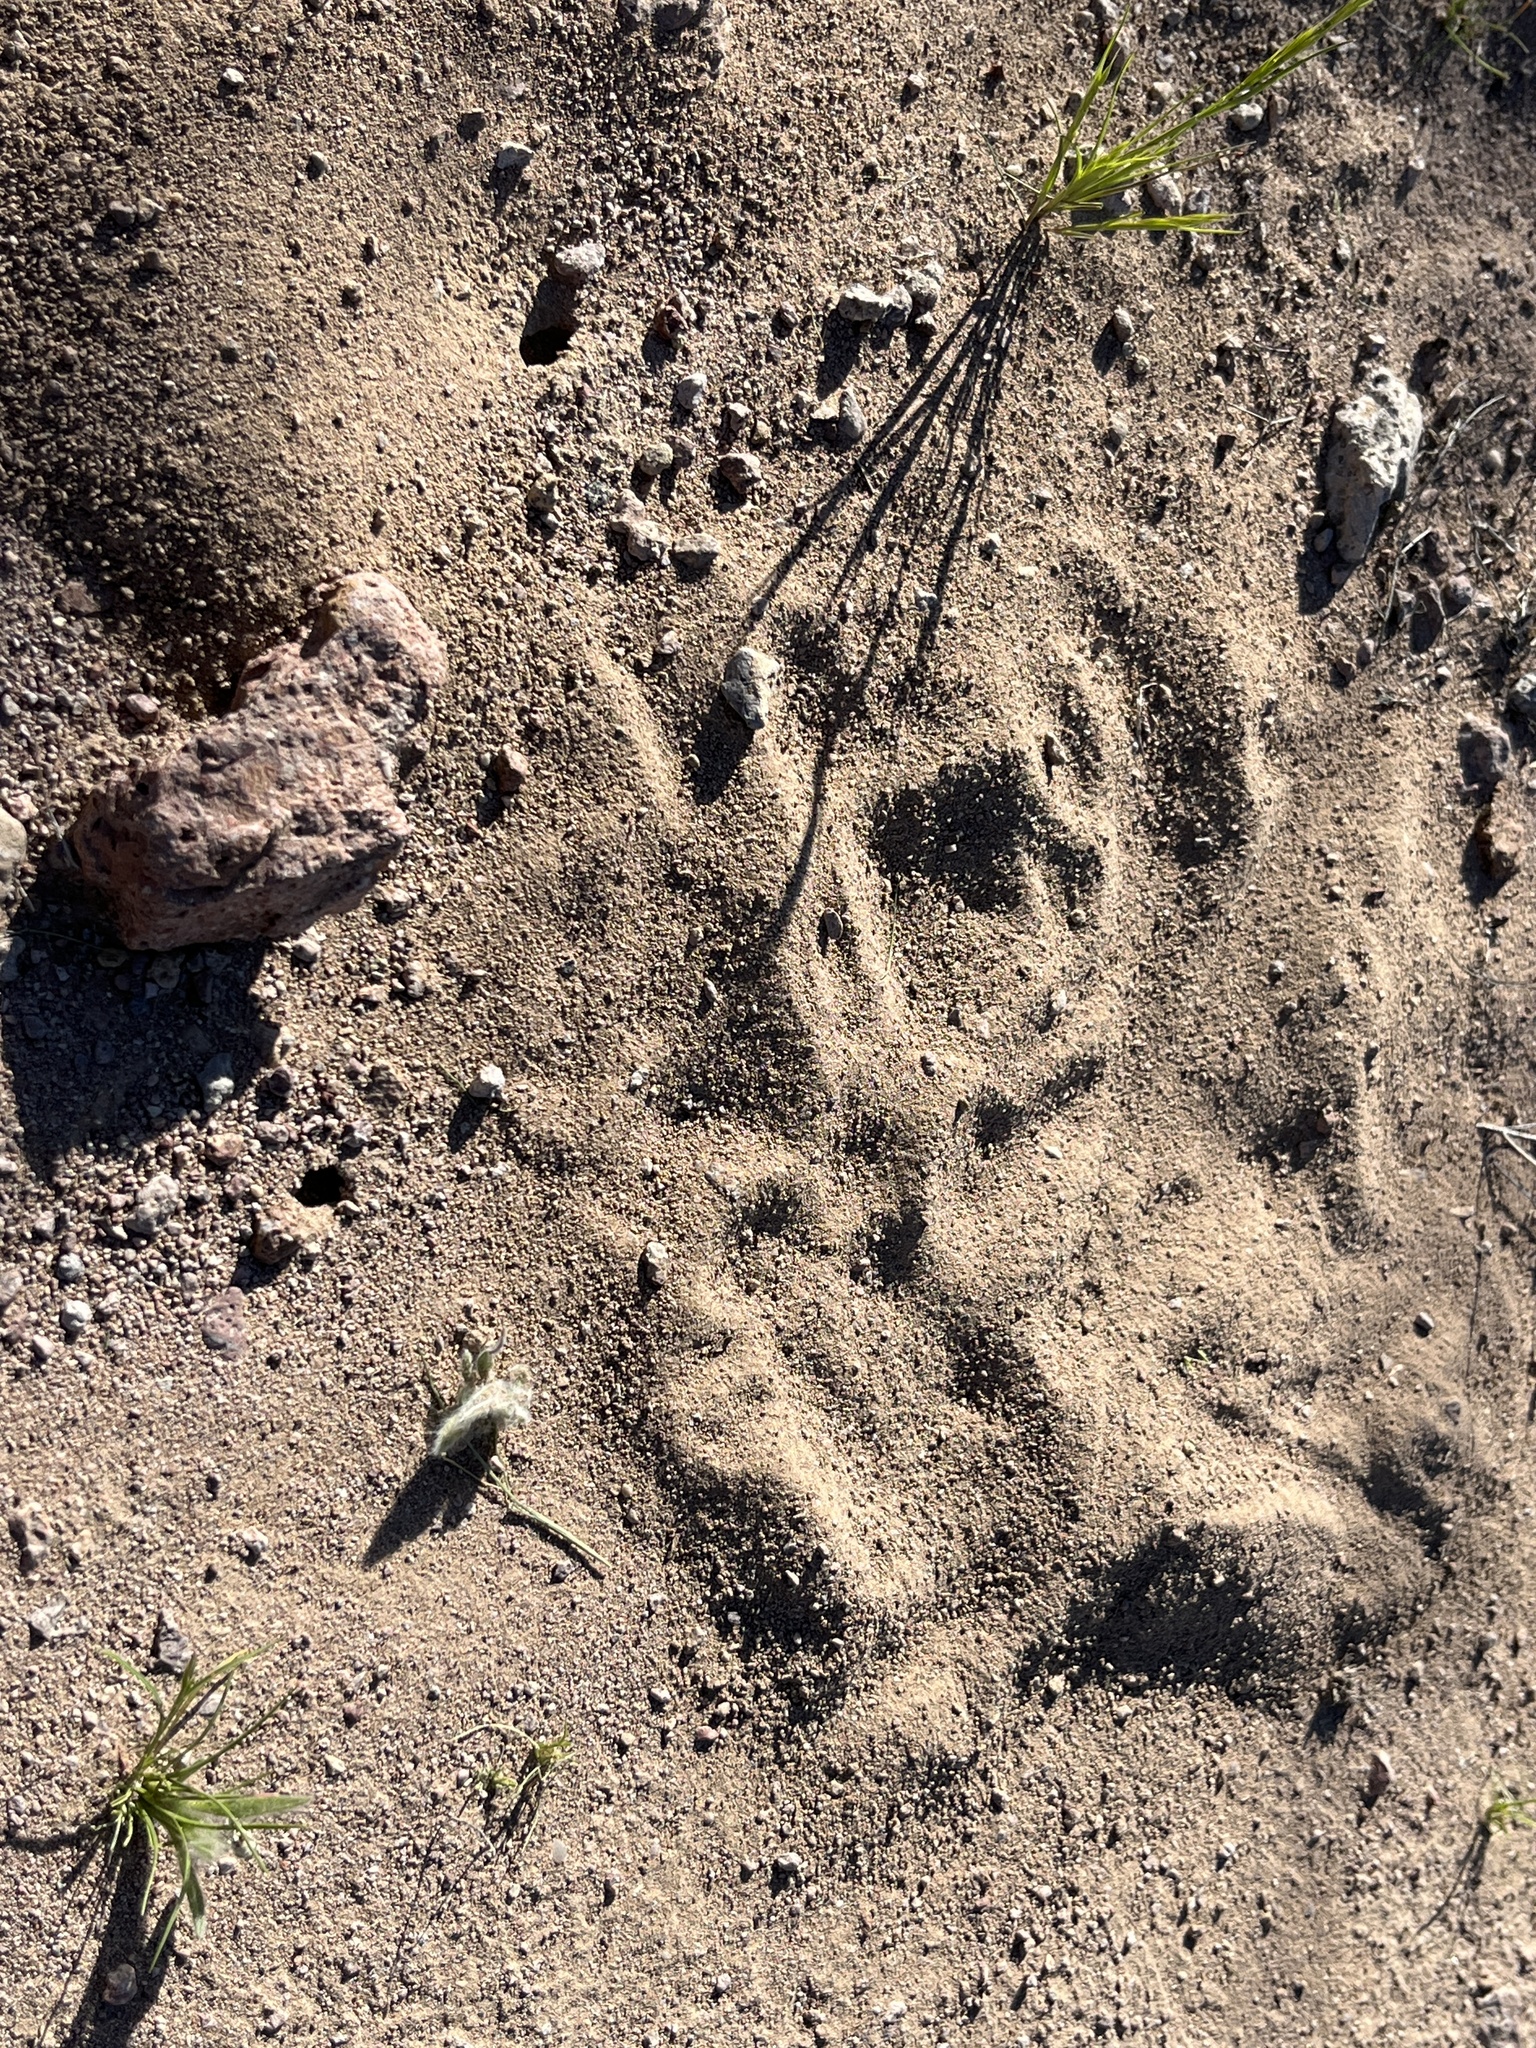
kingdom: Animalia
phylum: Arthropoda
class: Insecta
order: Hymenoptera
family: Formicidae
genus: Pogonomyrmex
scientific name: Pogonomyrmex californicus
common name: California harvester ant
